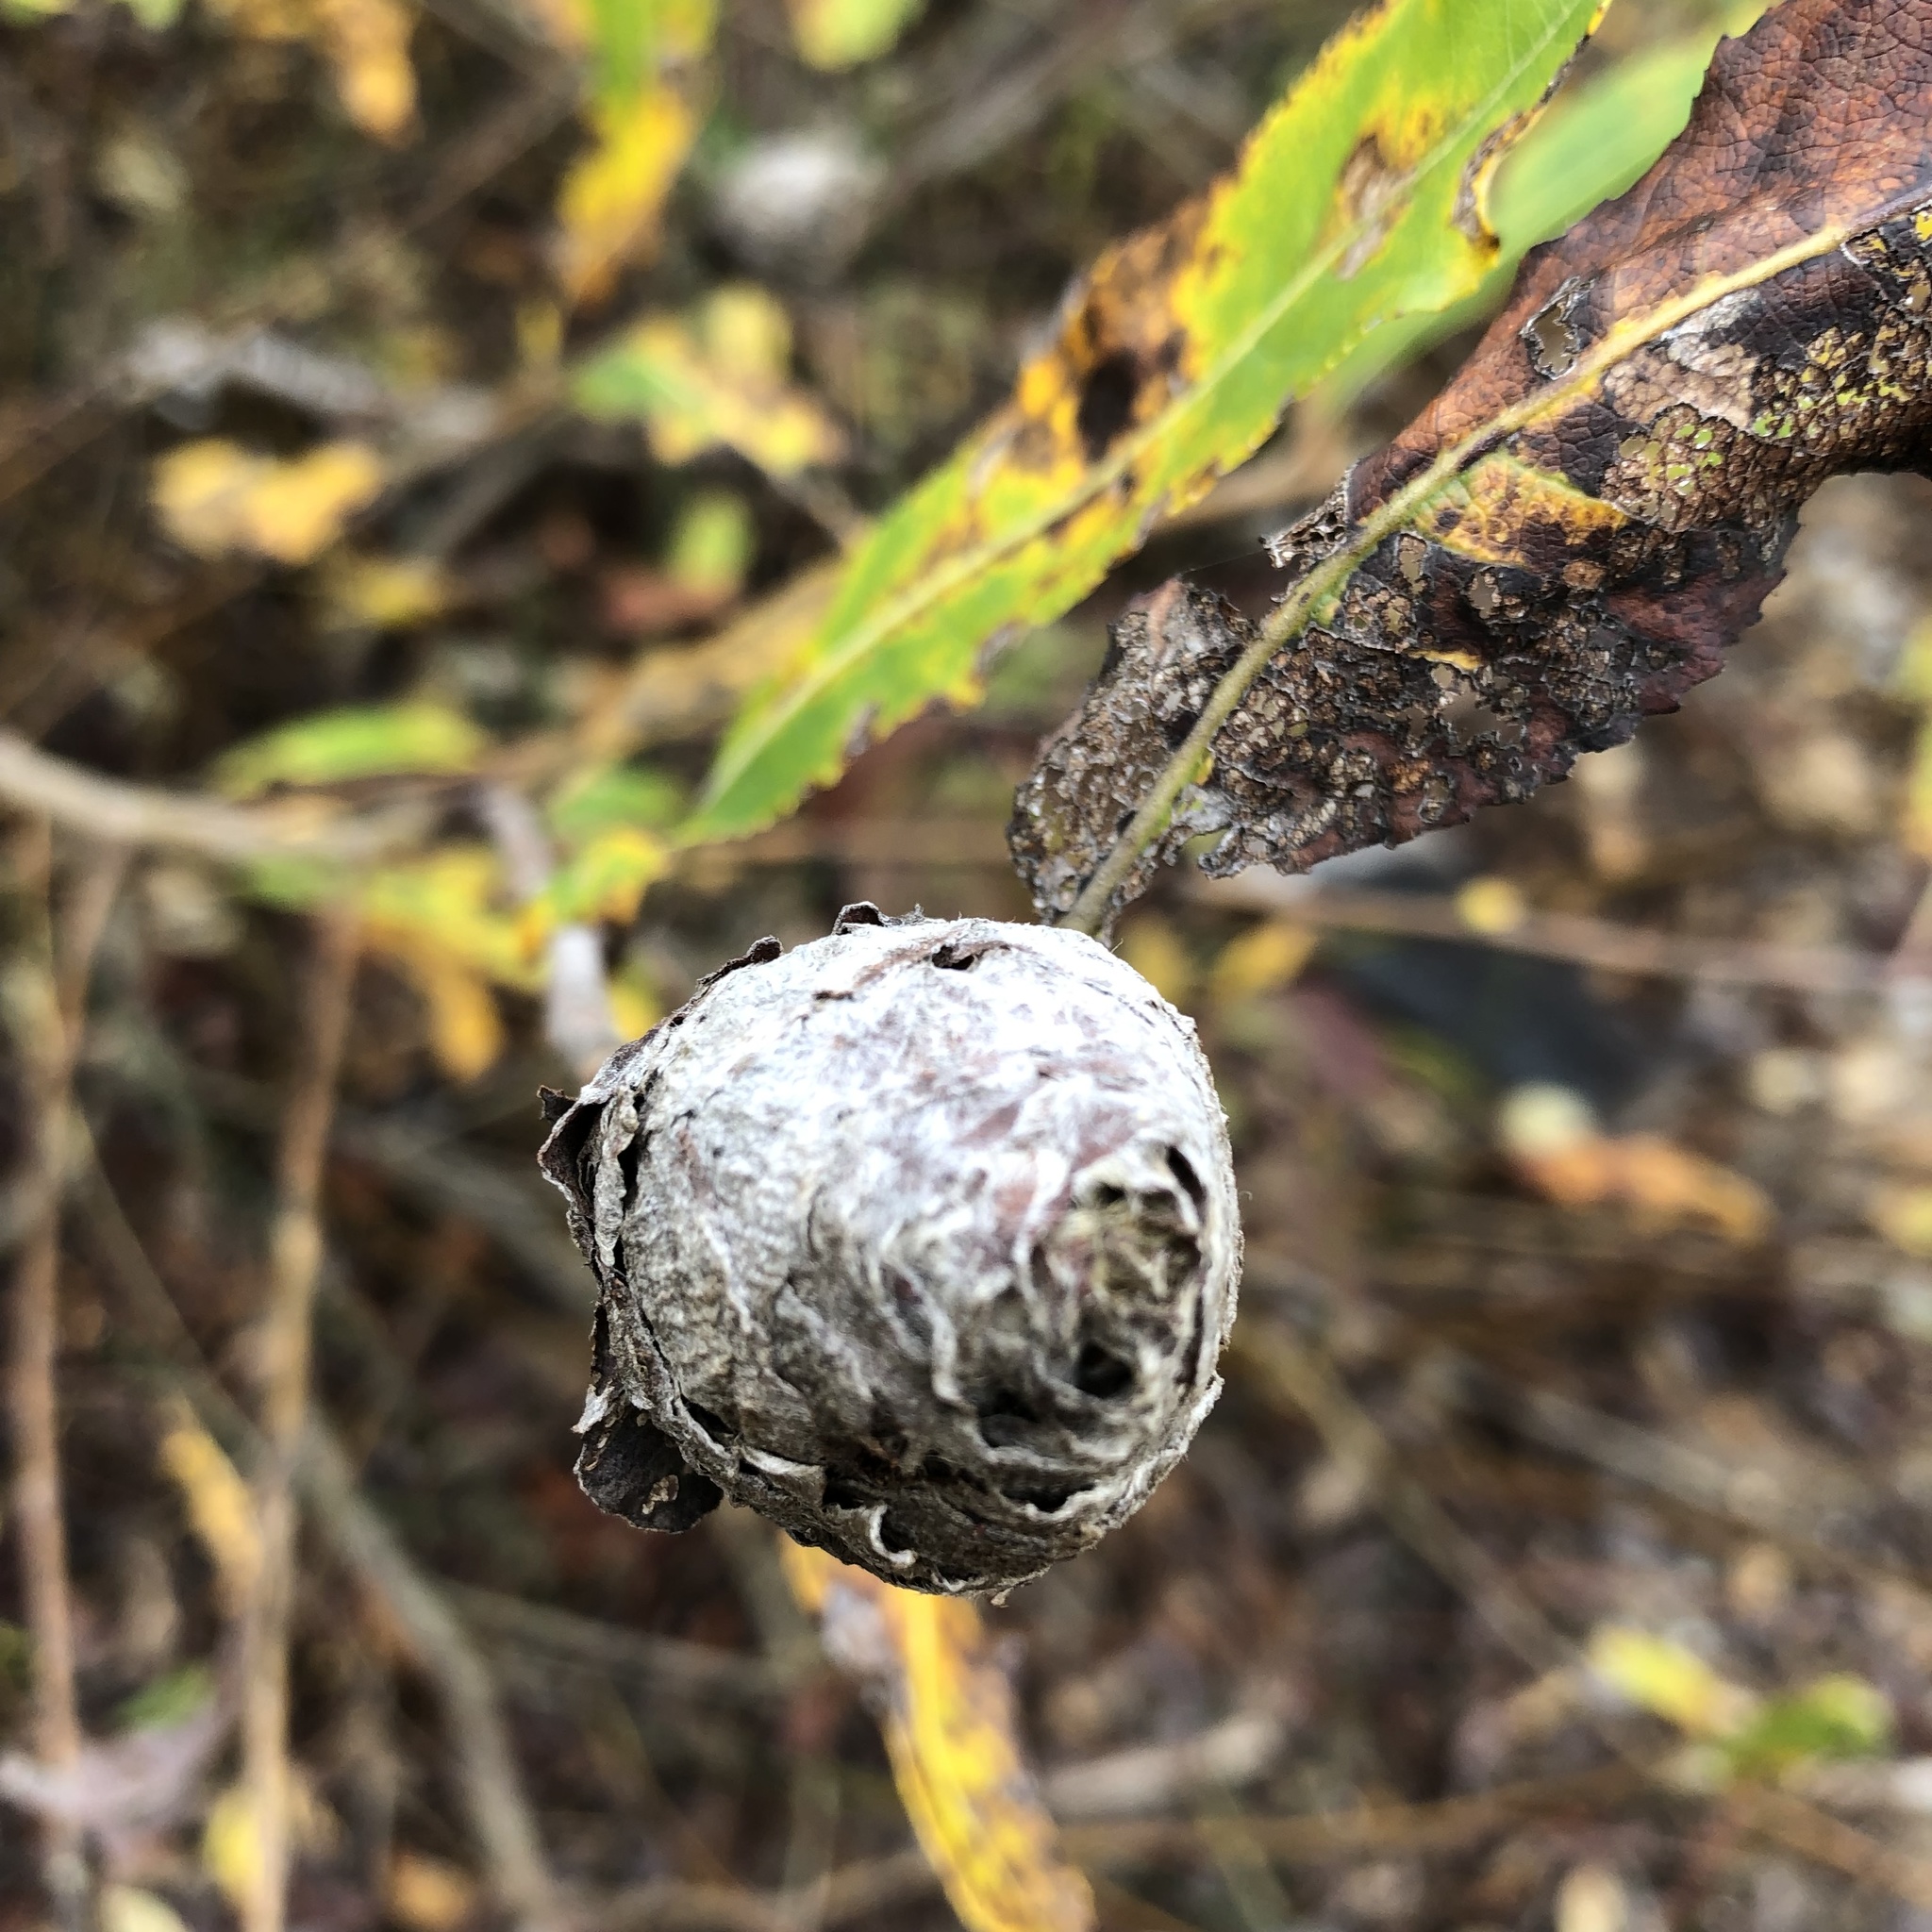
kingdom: Animalia
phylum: Arthropoda
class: Insecta
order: Diptera
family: Cecidomyiidae
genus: Rabdophaga
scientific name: Rabdophaga strobiloides
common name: Willow pinecone gall midge
